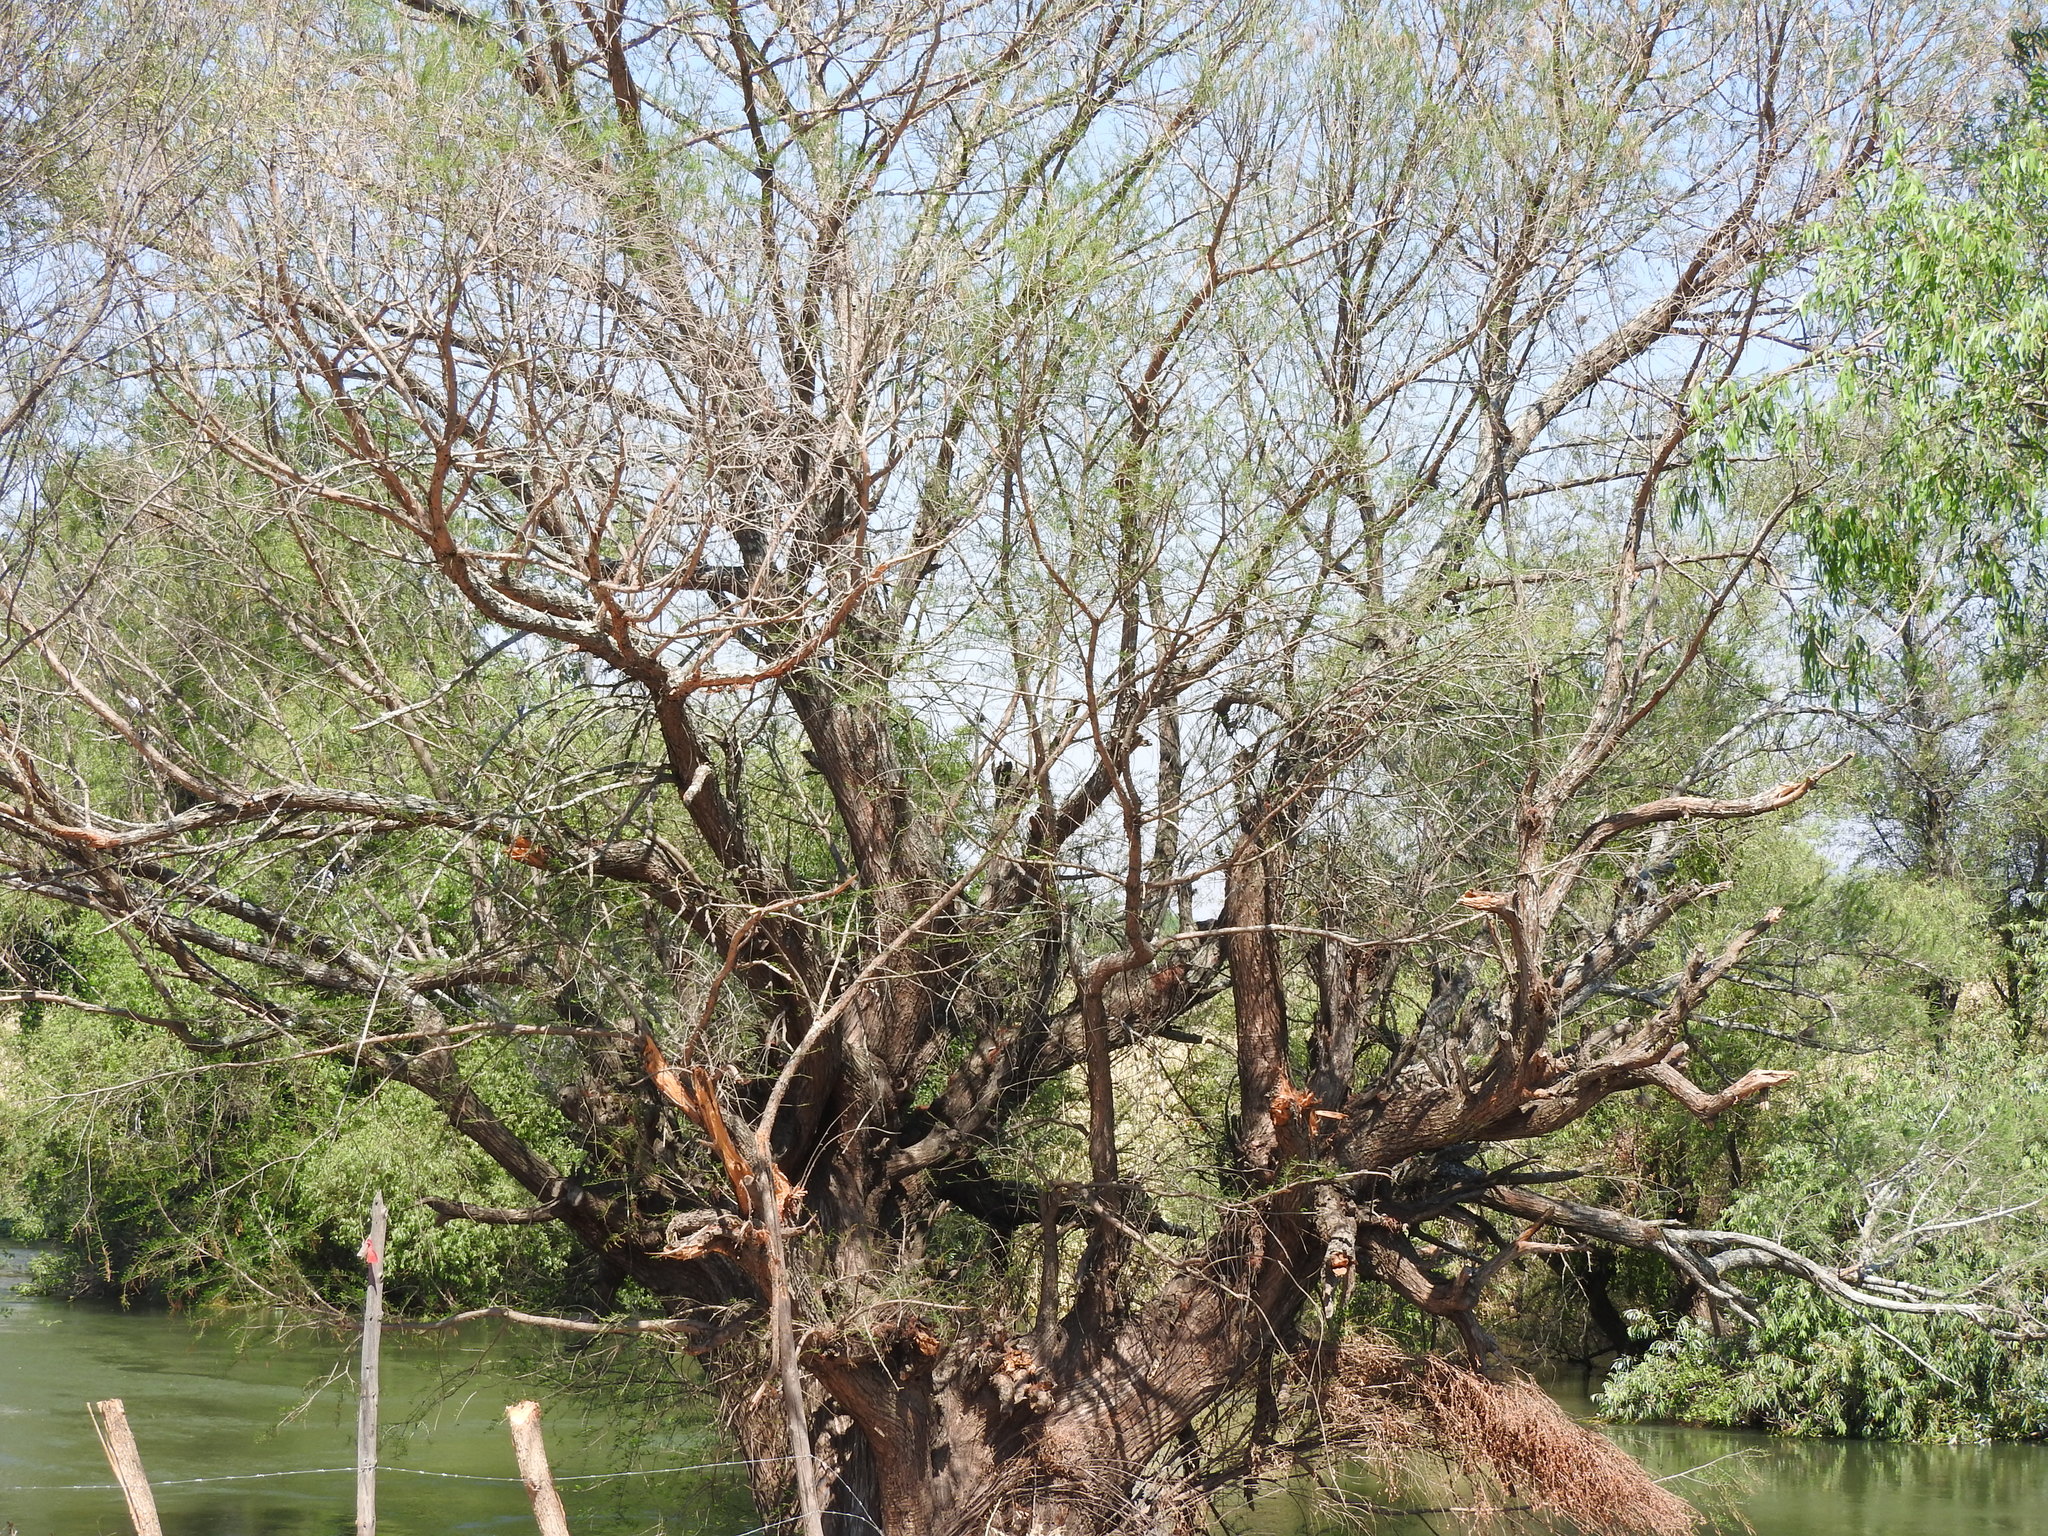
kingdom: Plantae
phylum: Tracheophyta
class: Pinopsida
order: Pinales
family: Cupressaceae
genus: Taxodium
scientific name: Taxodium mucronatum
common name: Montezume bald cypress
